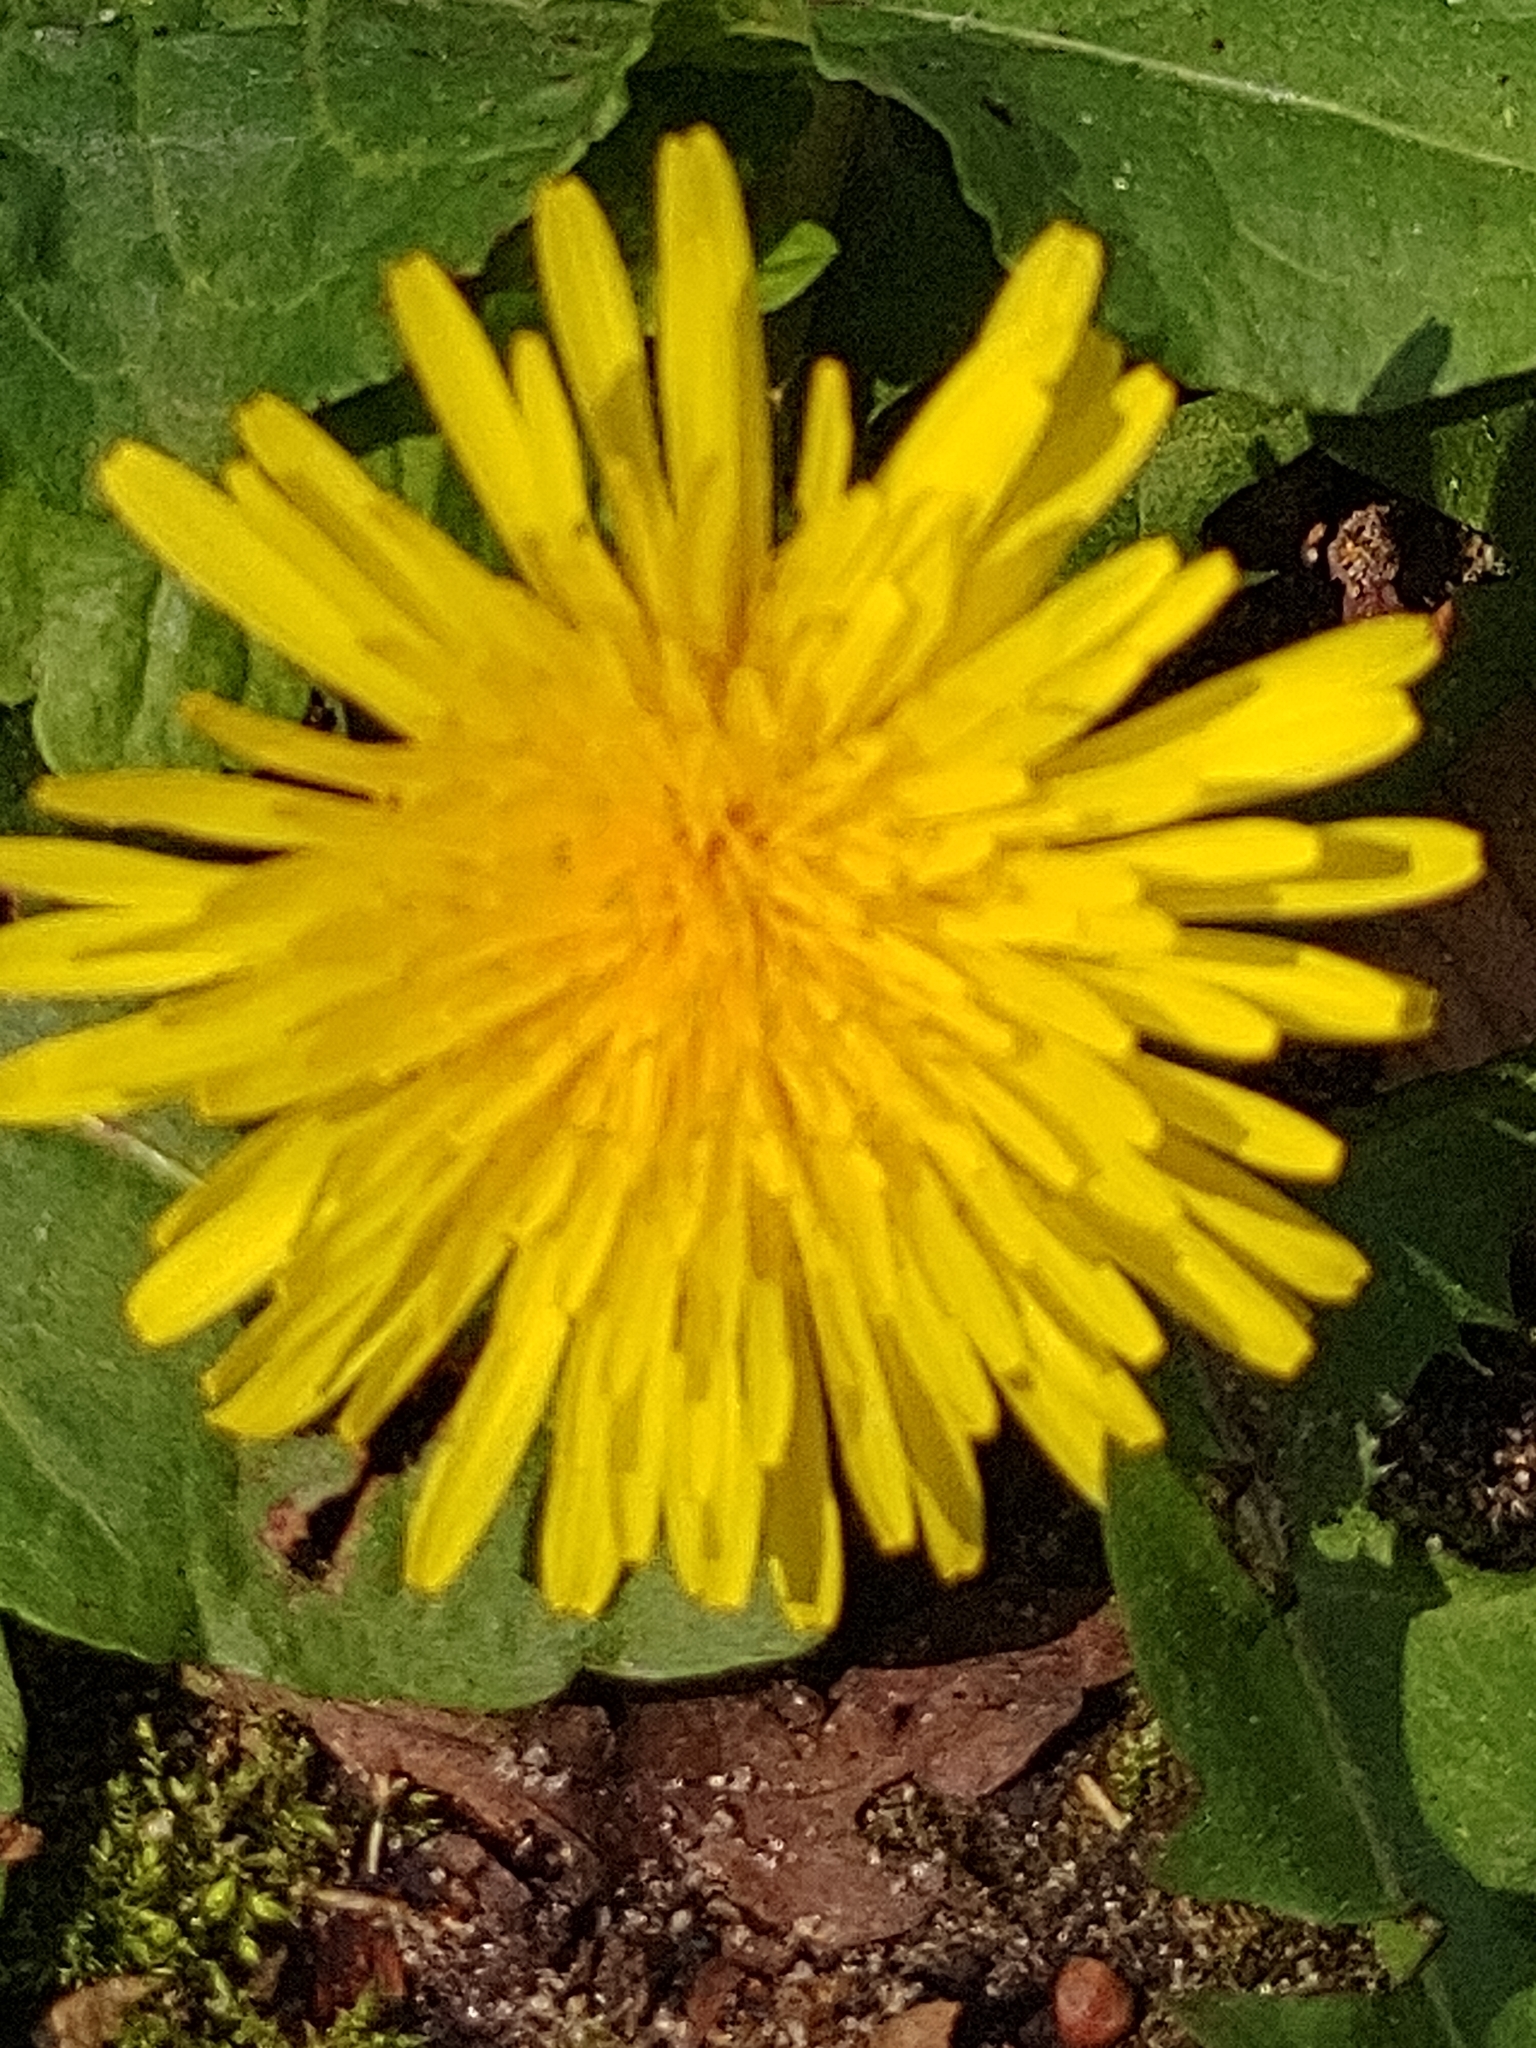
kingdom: Plantae
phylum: Tracheophyta
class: Magnoliopsida
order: Asterales
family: Asteraceae
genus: Taraxacum
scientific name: Taraxacum
